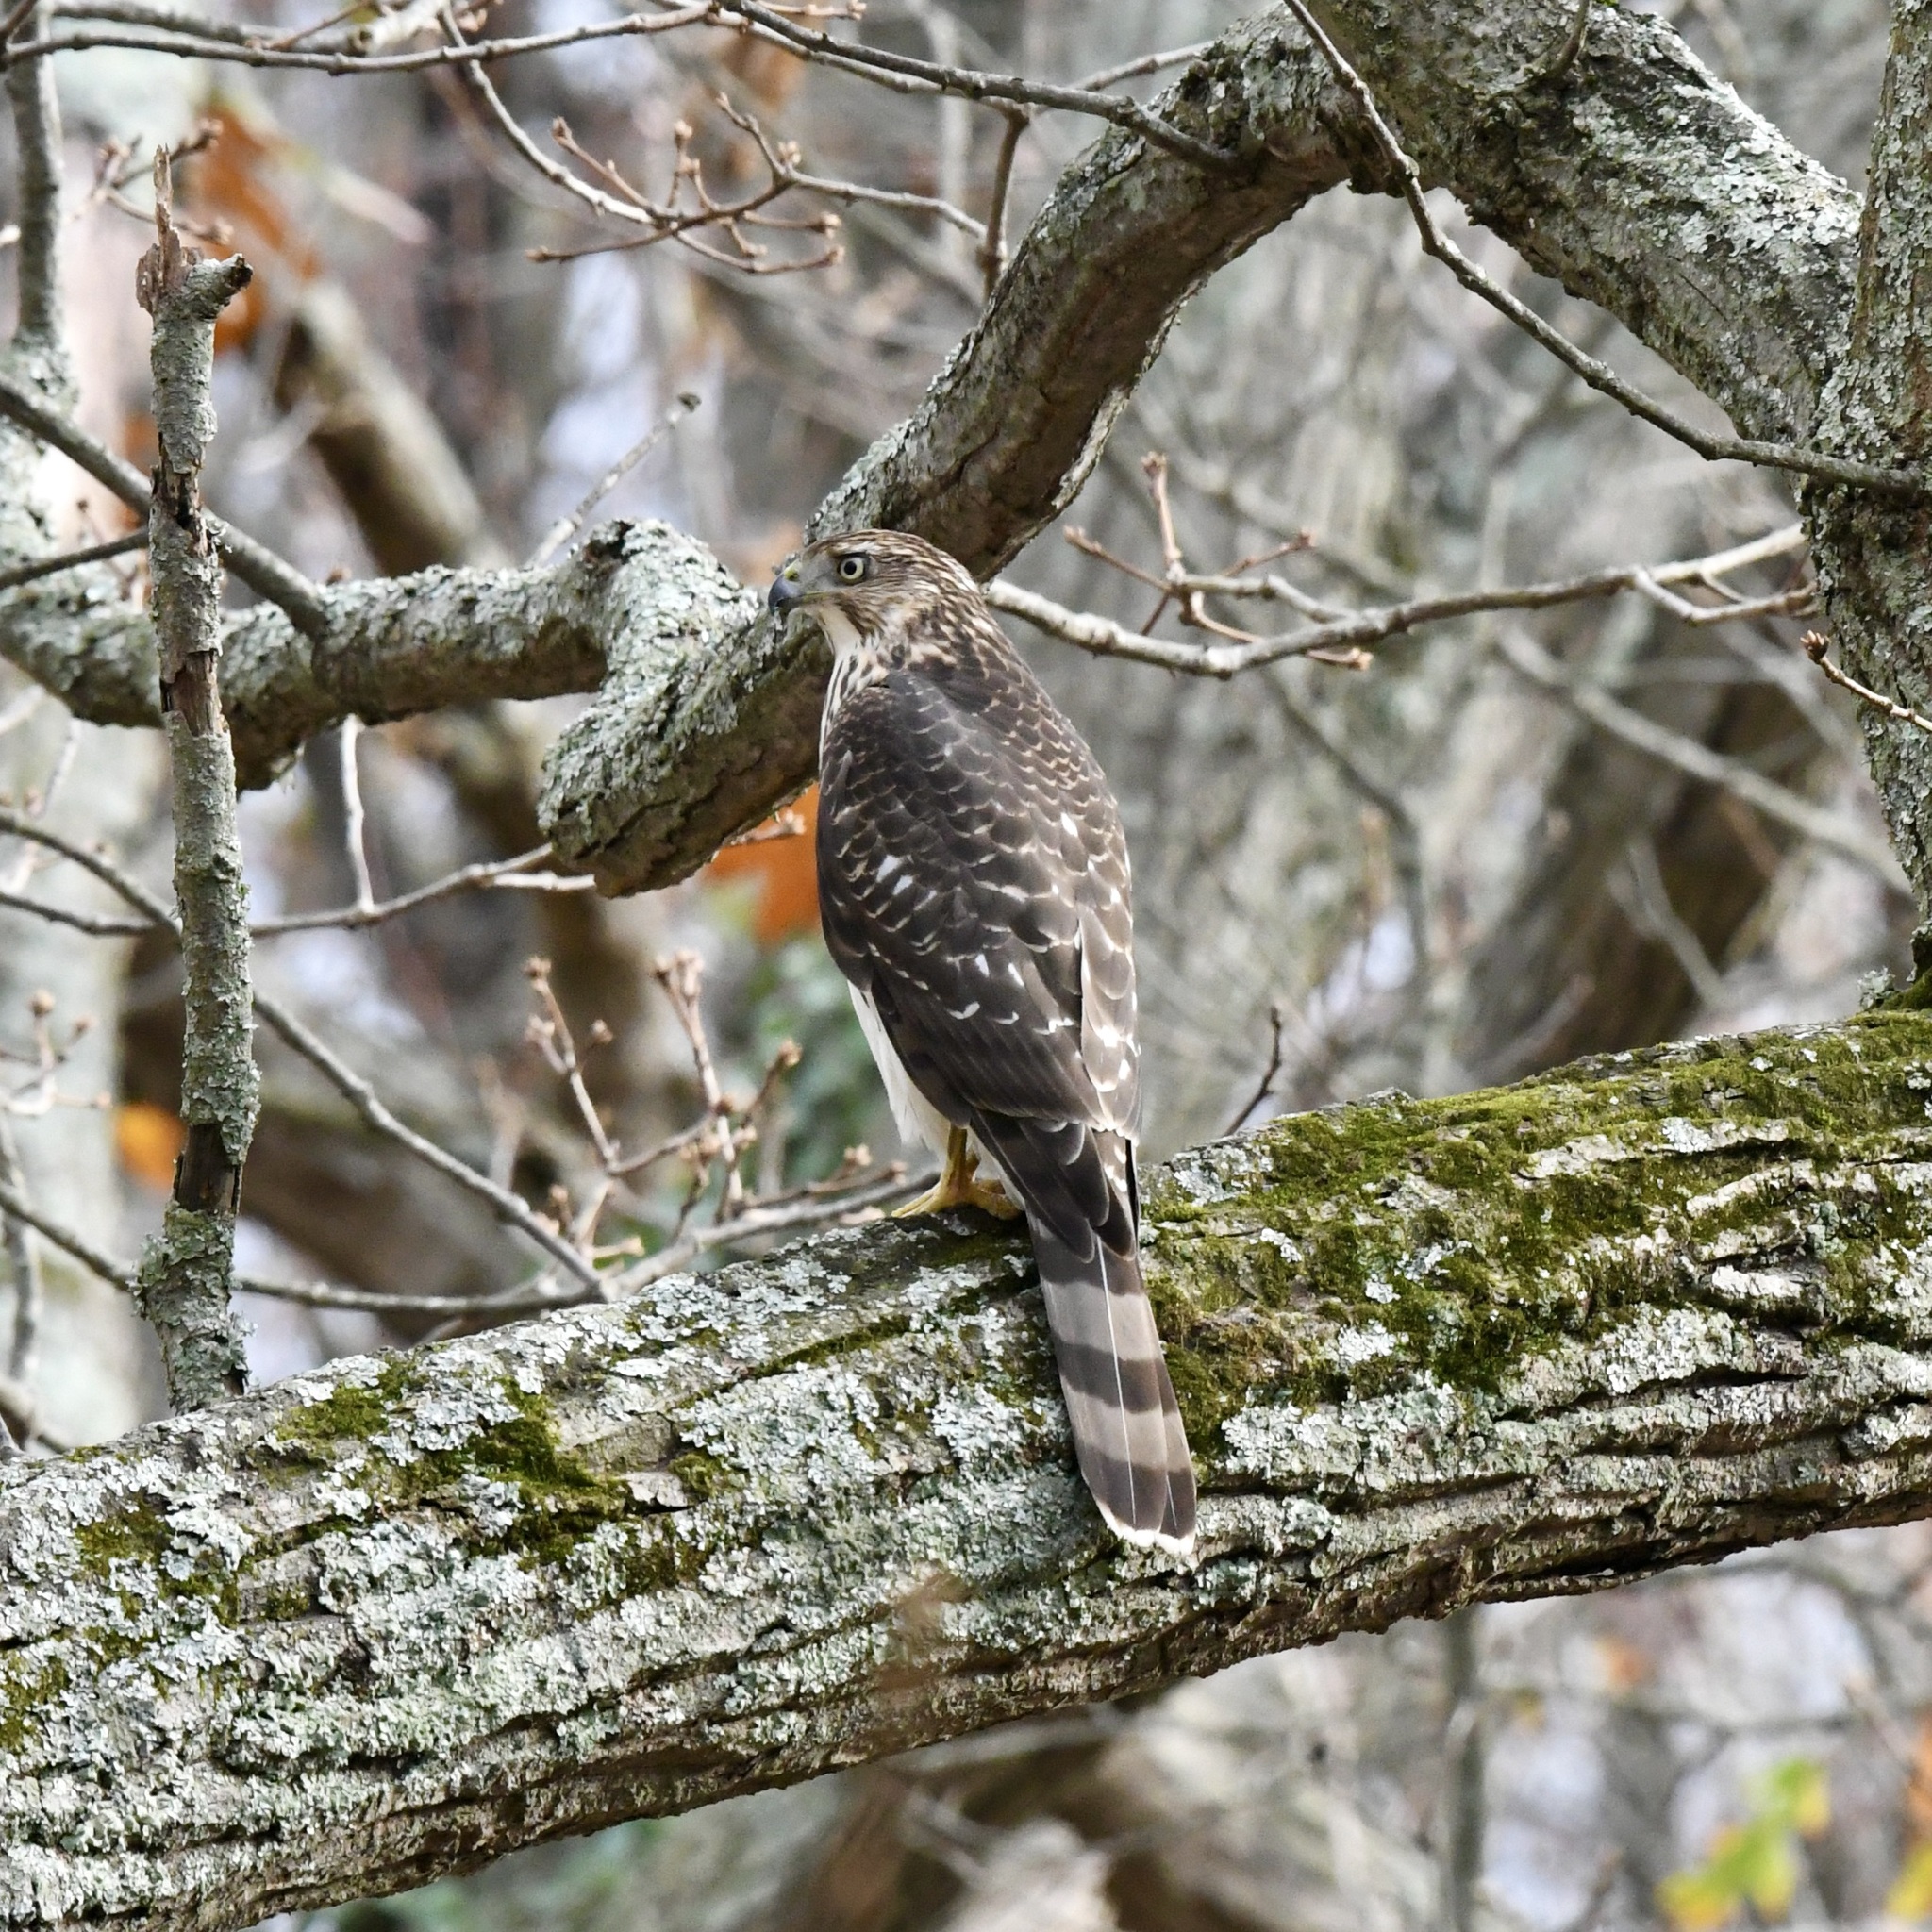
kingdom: Animalia
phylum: Chordata
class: Aves
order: Accipitriformes
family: Accipitridae
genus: Accipiter
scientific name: Accipiter cooperii
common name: Cooper's hawk
